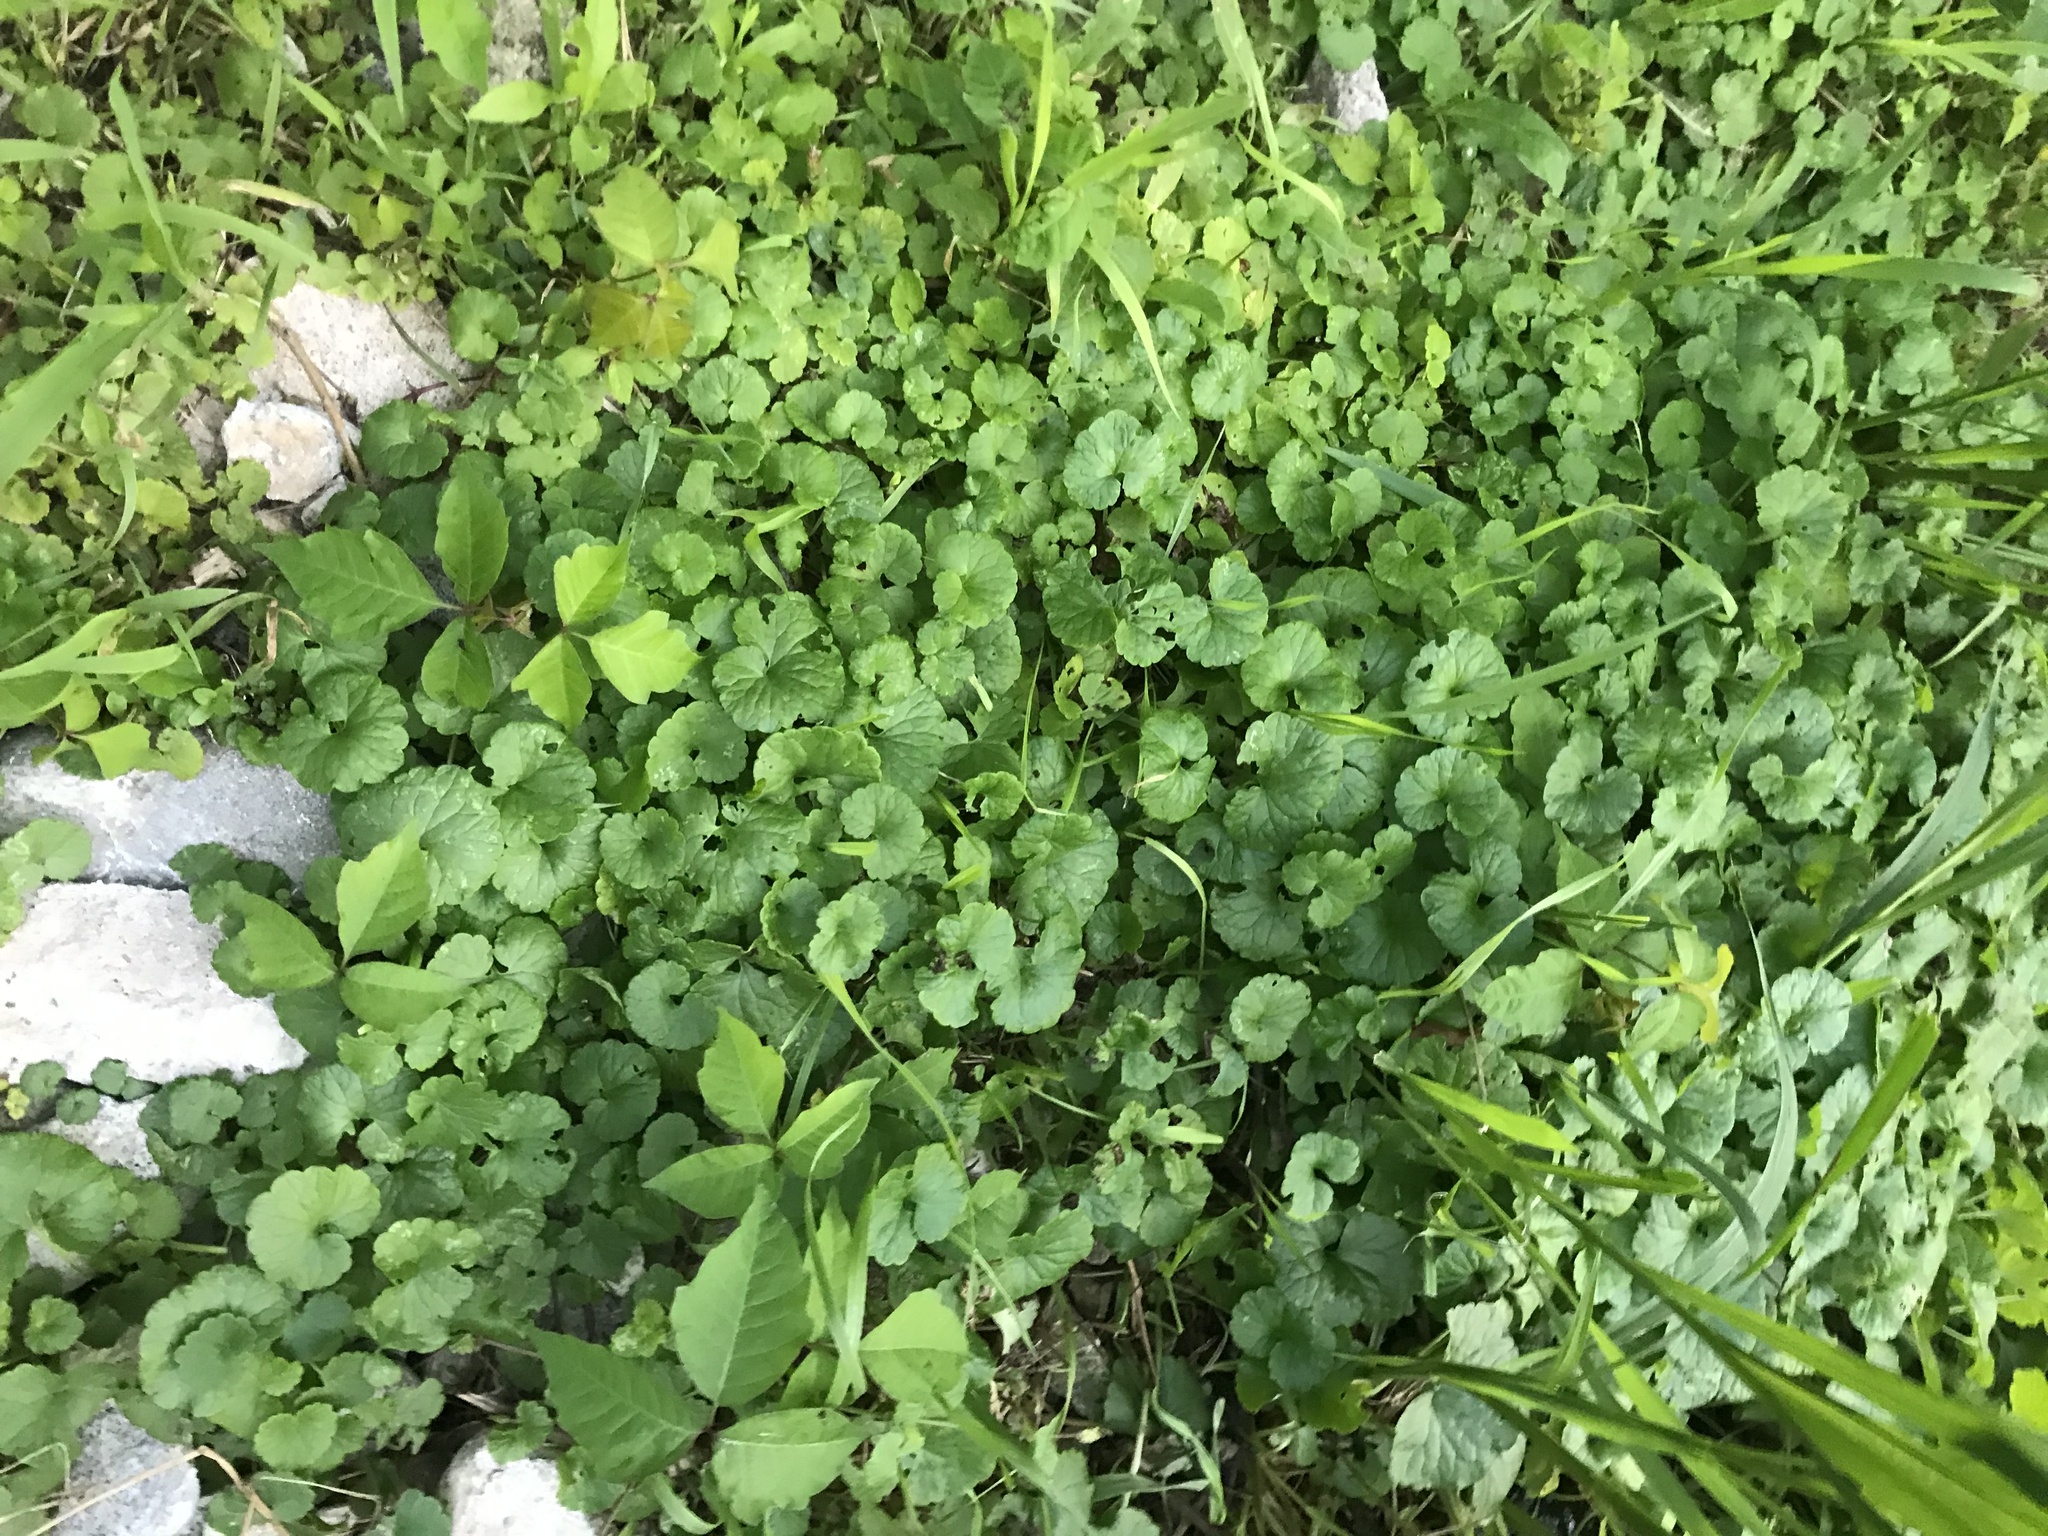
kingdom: Plantae
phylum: Tracheophyta
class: Magnoliopsida
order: Lamiales
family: Lamiaceae
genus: Glechoma
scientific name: Glechoma hederacea
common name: Ground ivy
